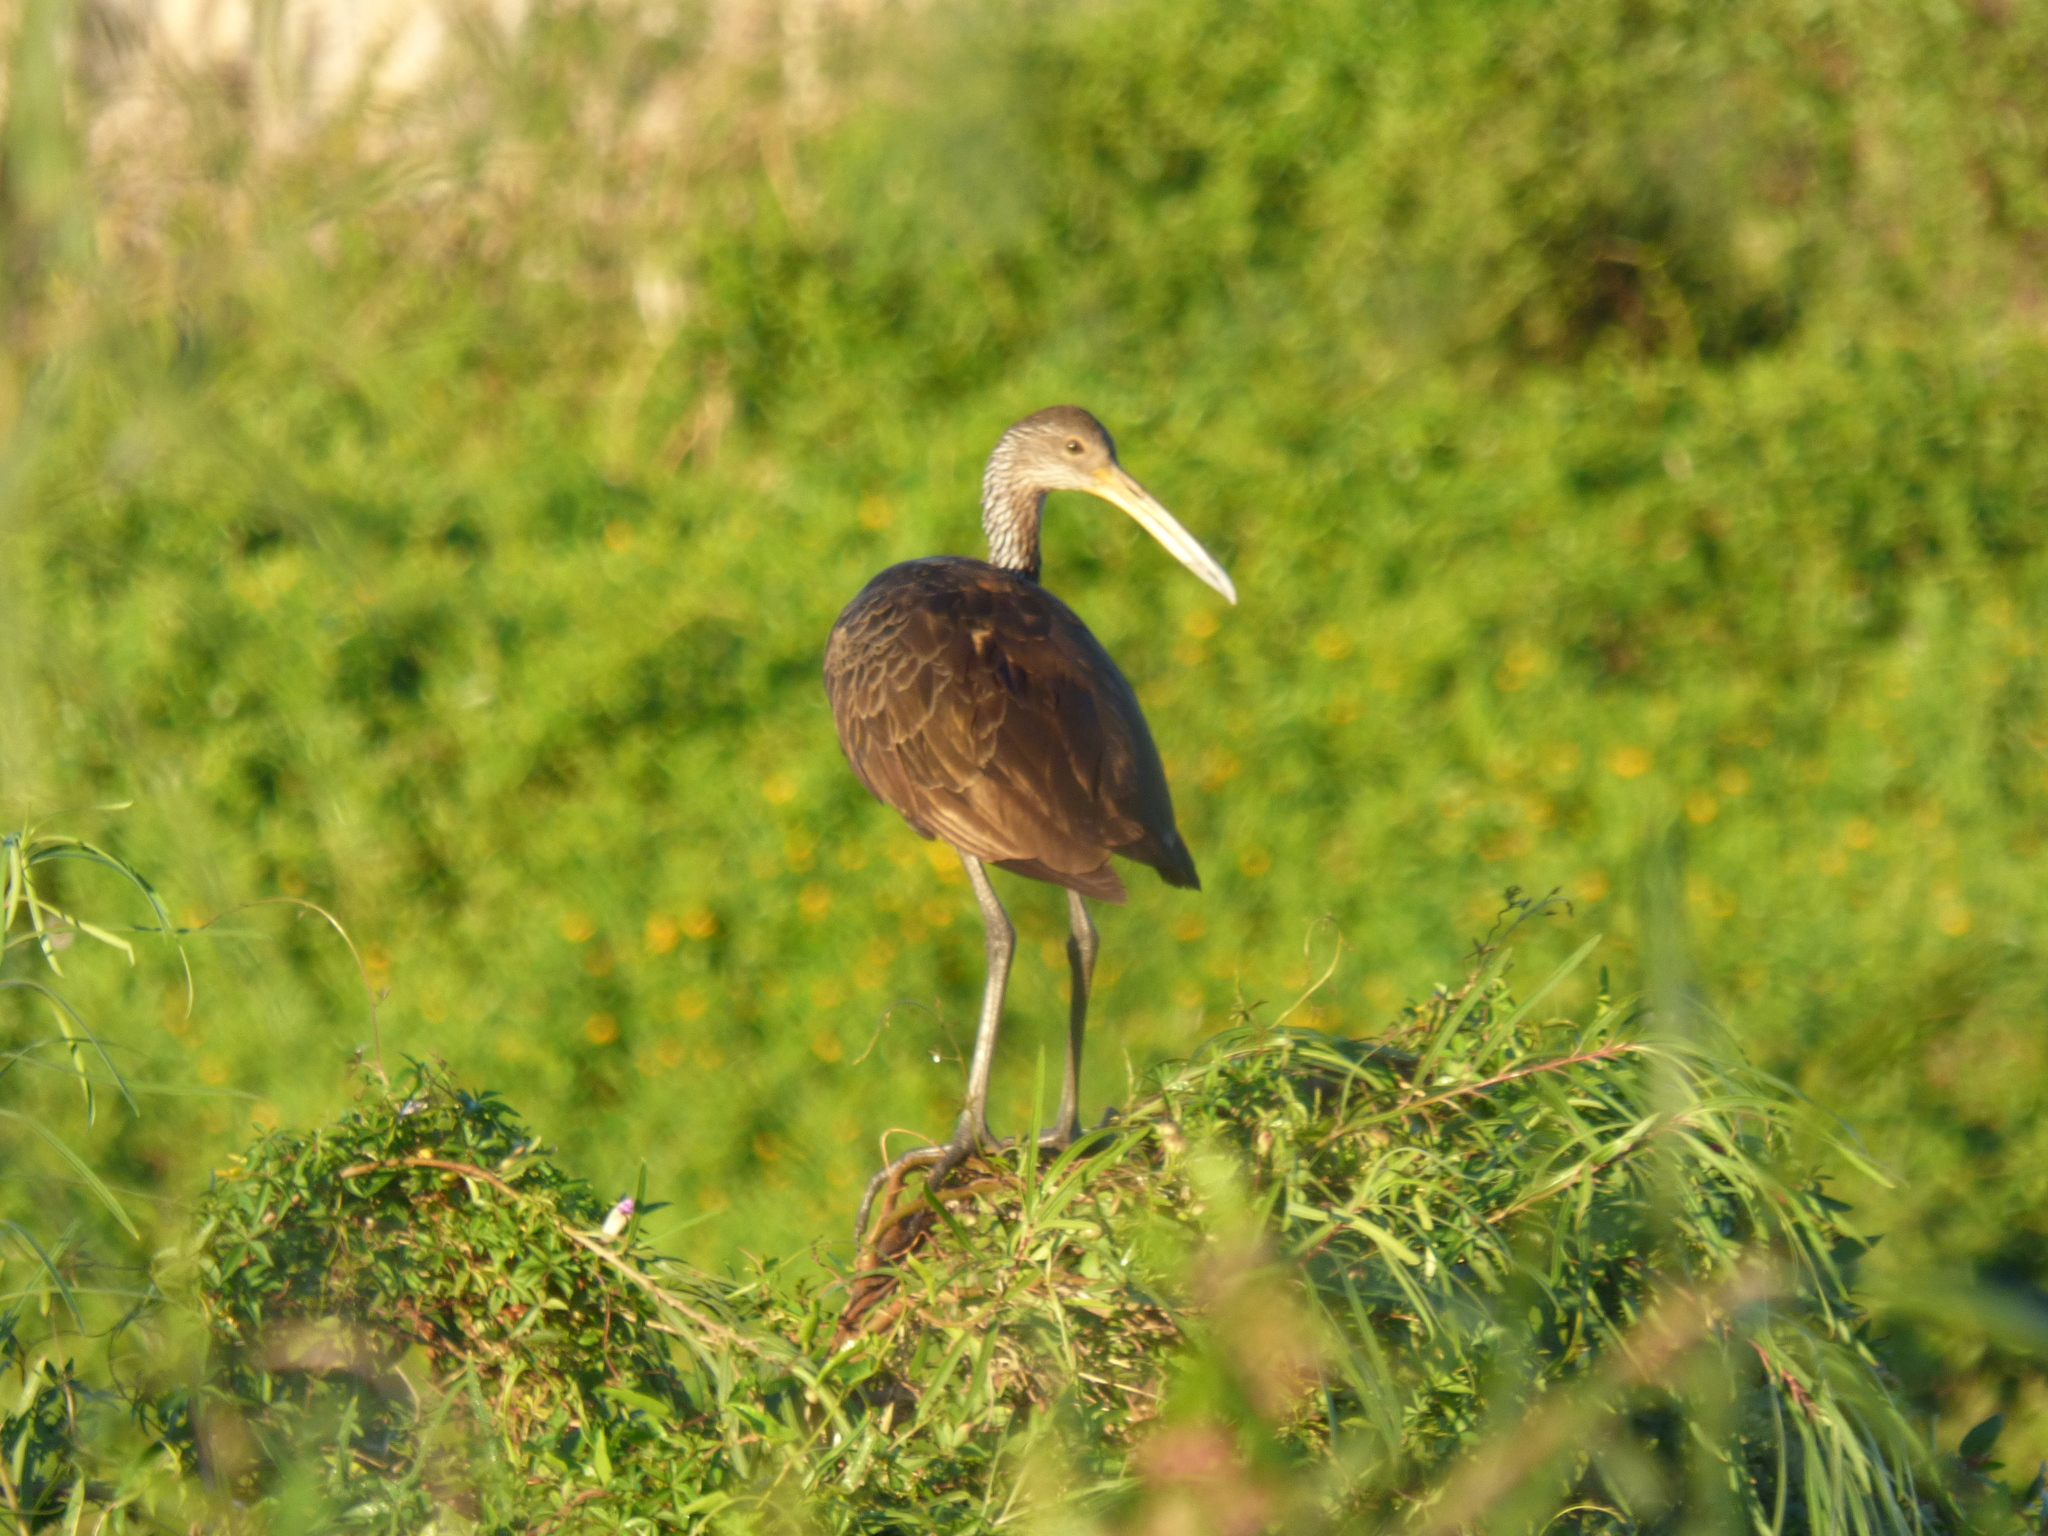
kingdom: Animalia
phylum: Chordata
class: Aves
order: Gruiformes
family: Aramidae
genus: Aramus
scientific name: Aramus guarauna
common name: Limpkin
